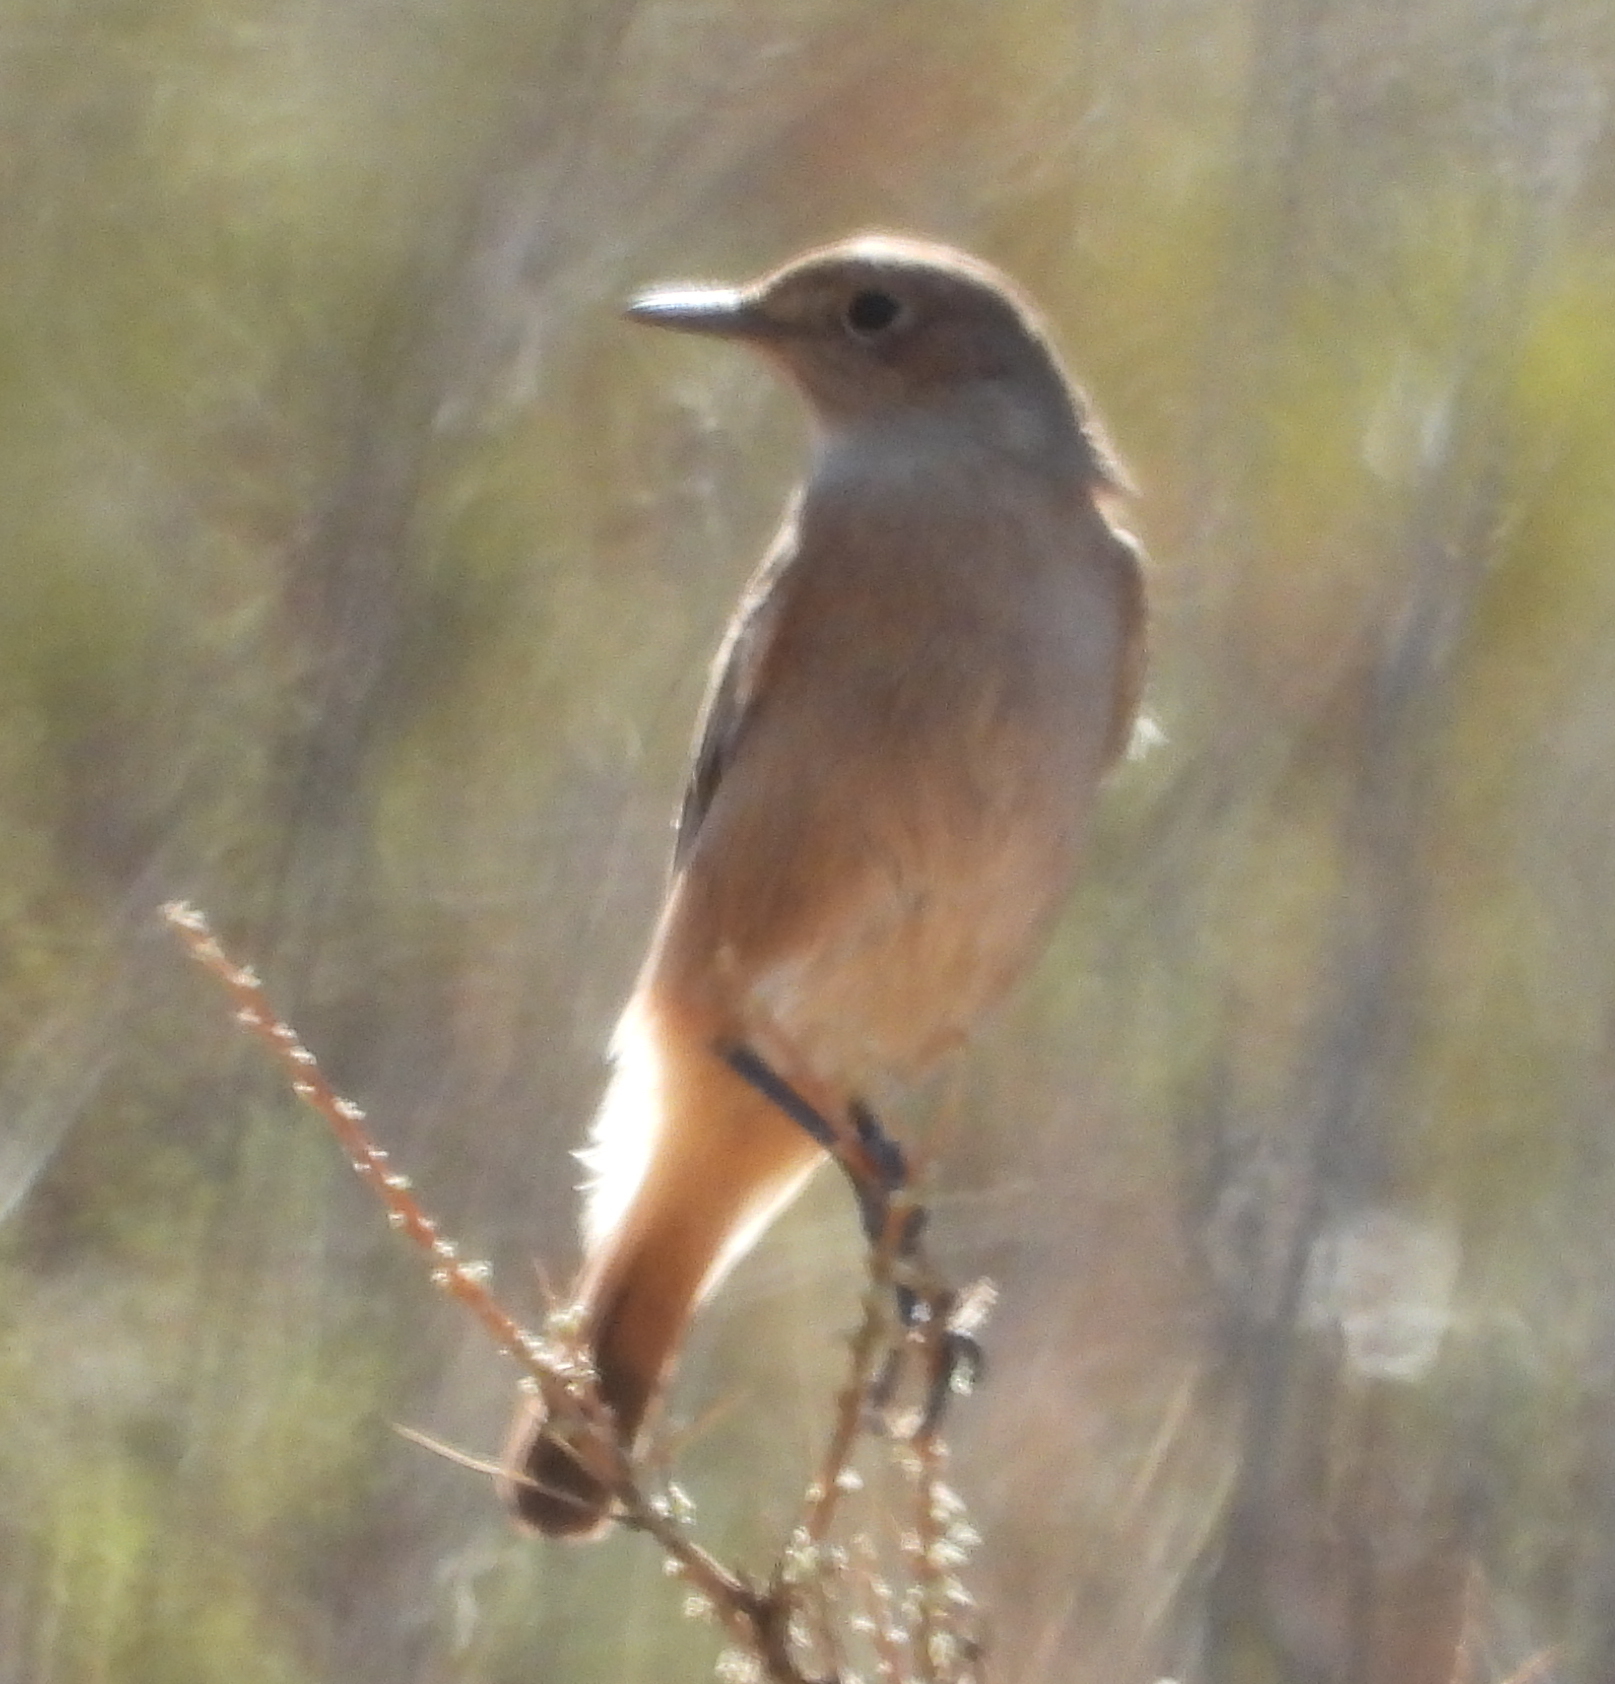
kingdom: Animalia
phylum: Chordata
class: Aves
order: Passeriformes
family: Muscicapidae
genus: Oenanthe
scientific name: Oenanthe familiaris
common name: Familiar chat
